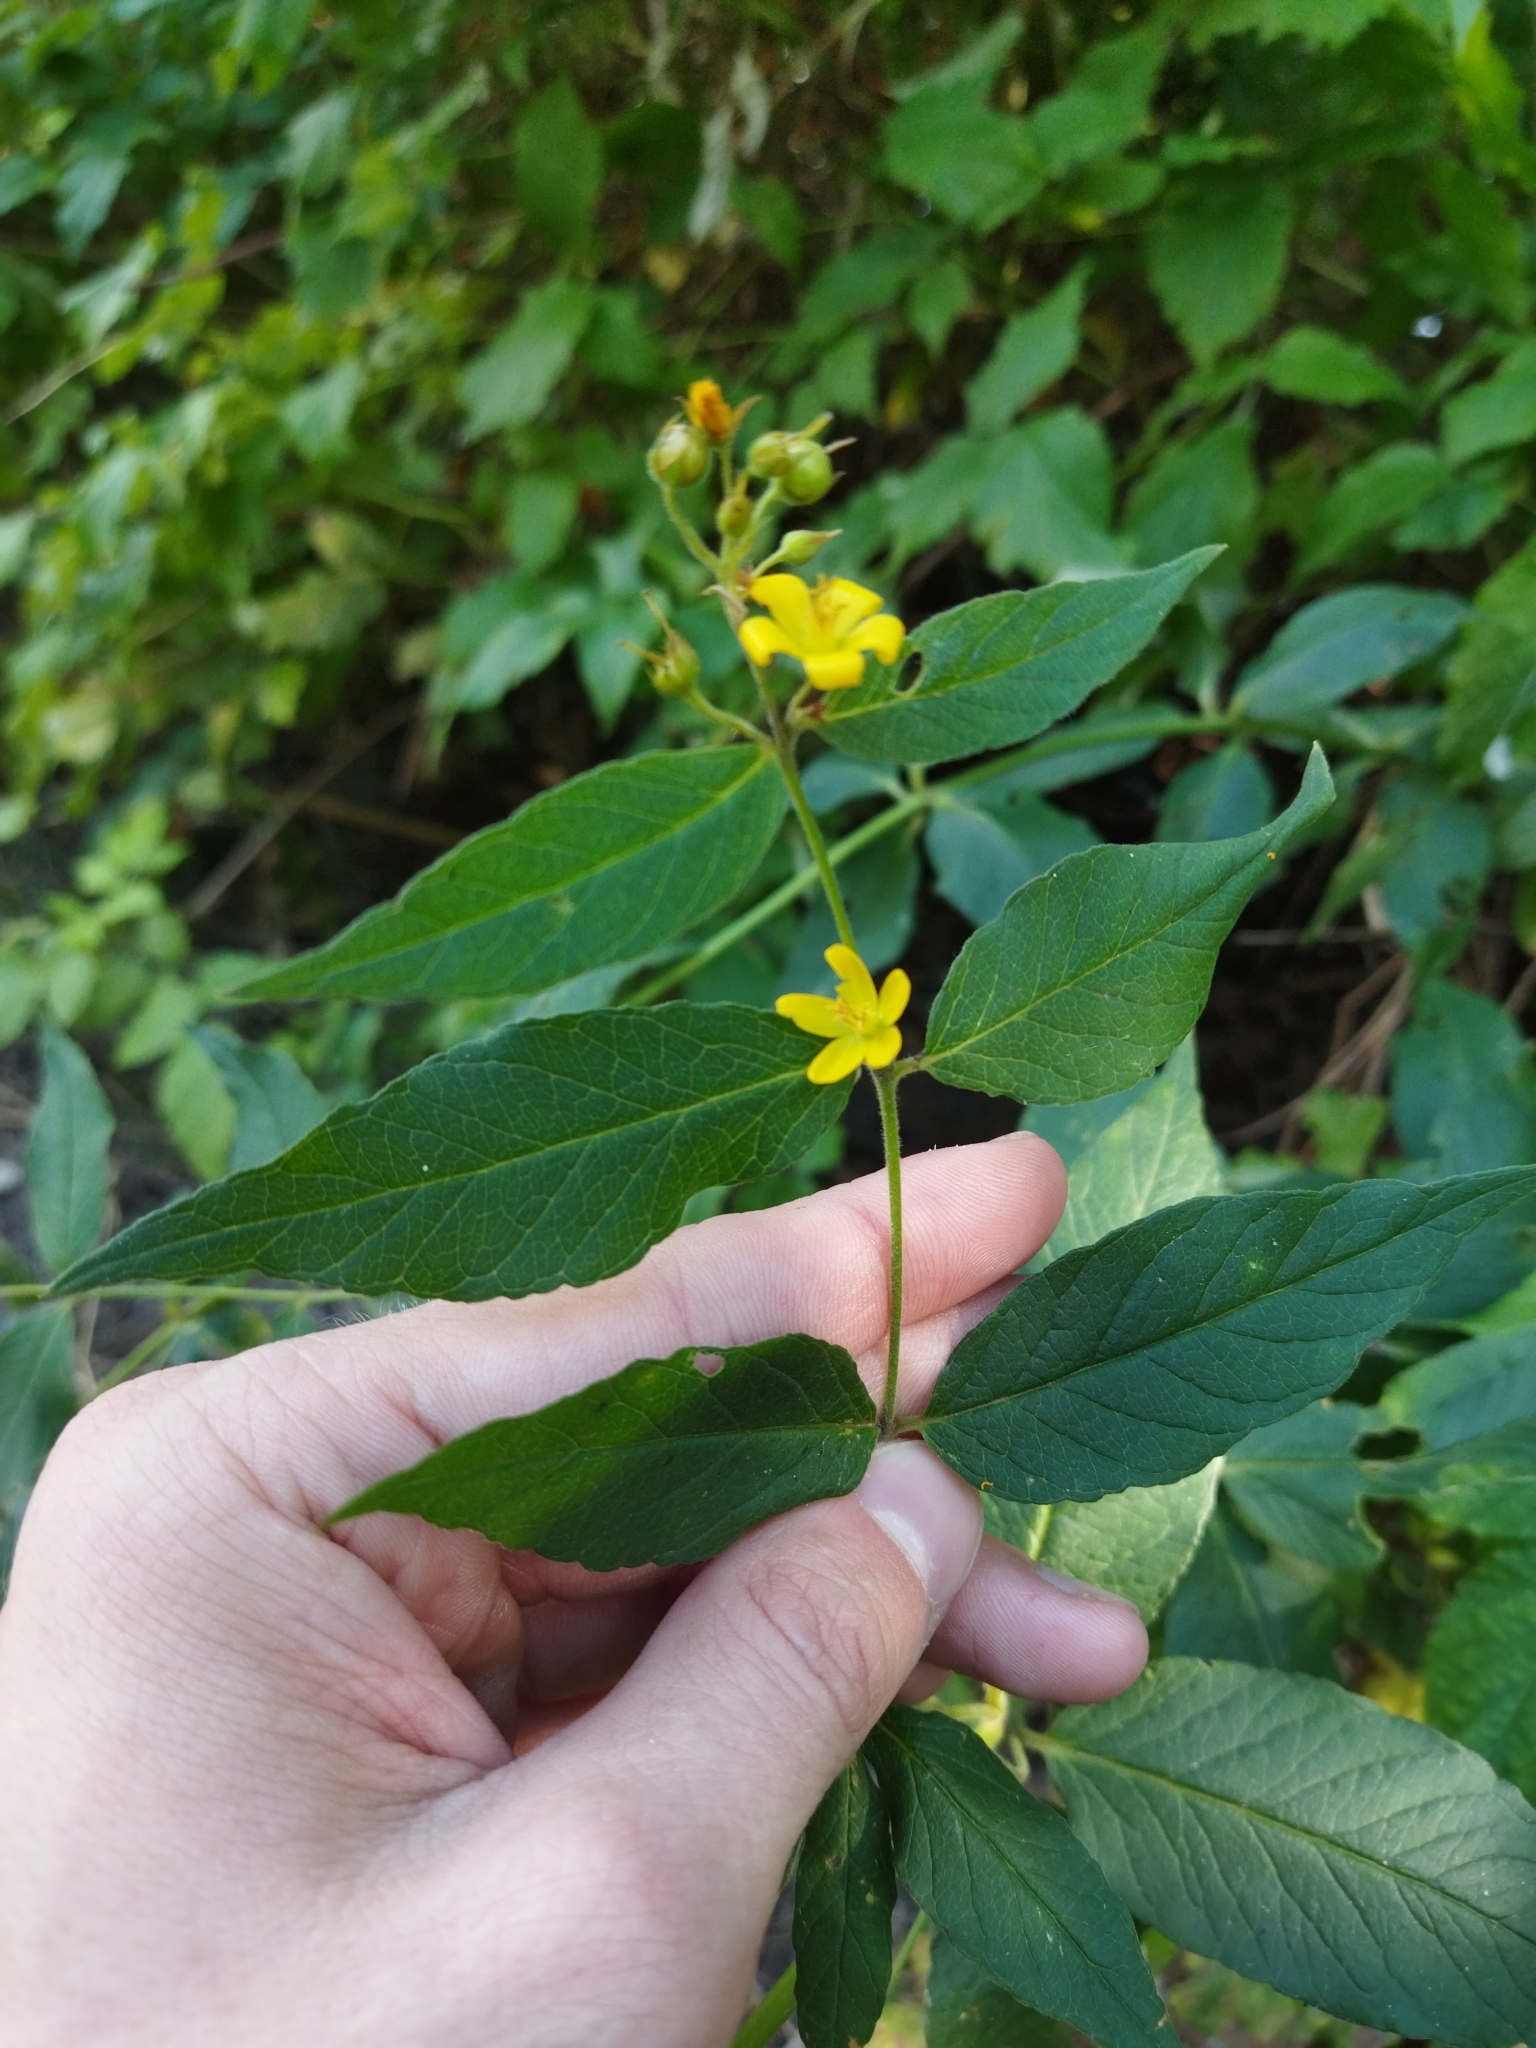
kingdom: Plantae
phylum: Tracheophyta
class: Magnoliopsida
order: Ericales
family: Primulaceae
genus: Lysimachia
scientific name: Lysimachia vulgaris
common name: Yellow loosestrife
